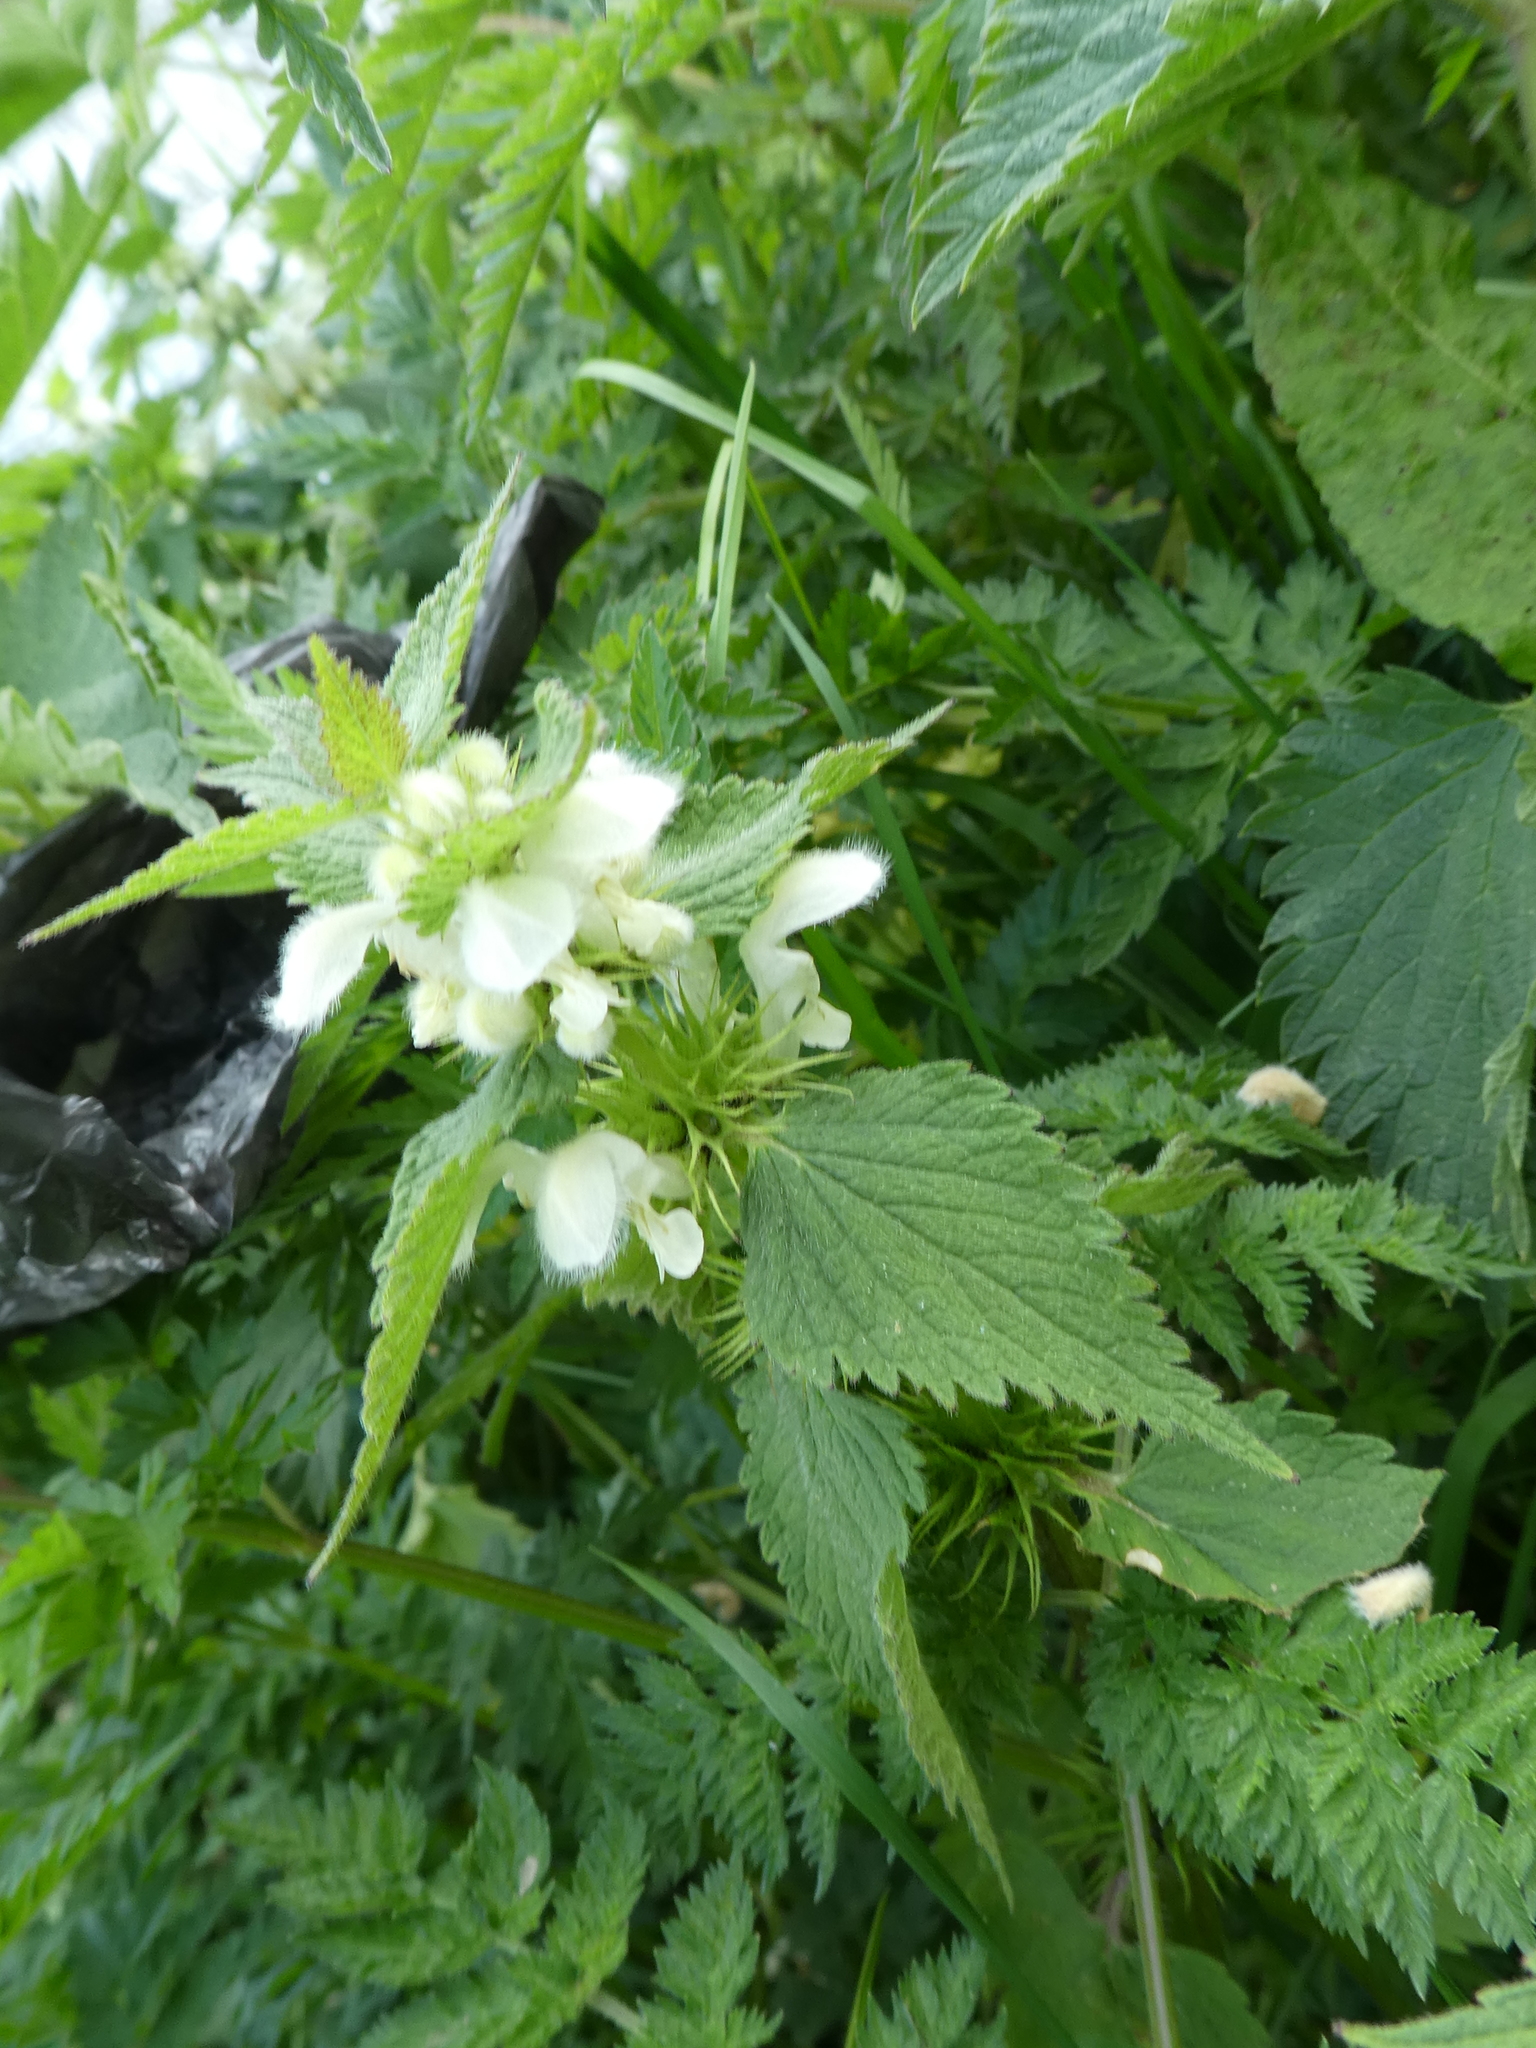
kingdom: Plantae
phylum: Tracheophyta
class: Magnoliopsida
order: Lamiales
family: Lamiaceae
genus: Lamium
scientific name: Lamium album
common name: White dead-nettle
